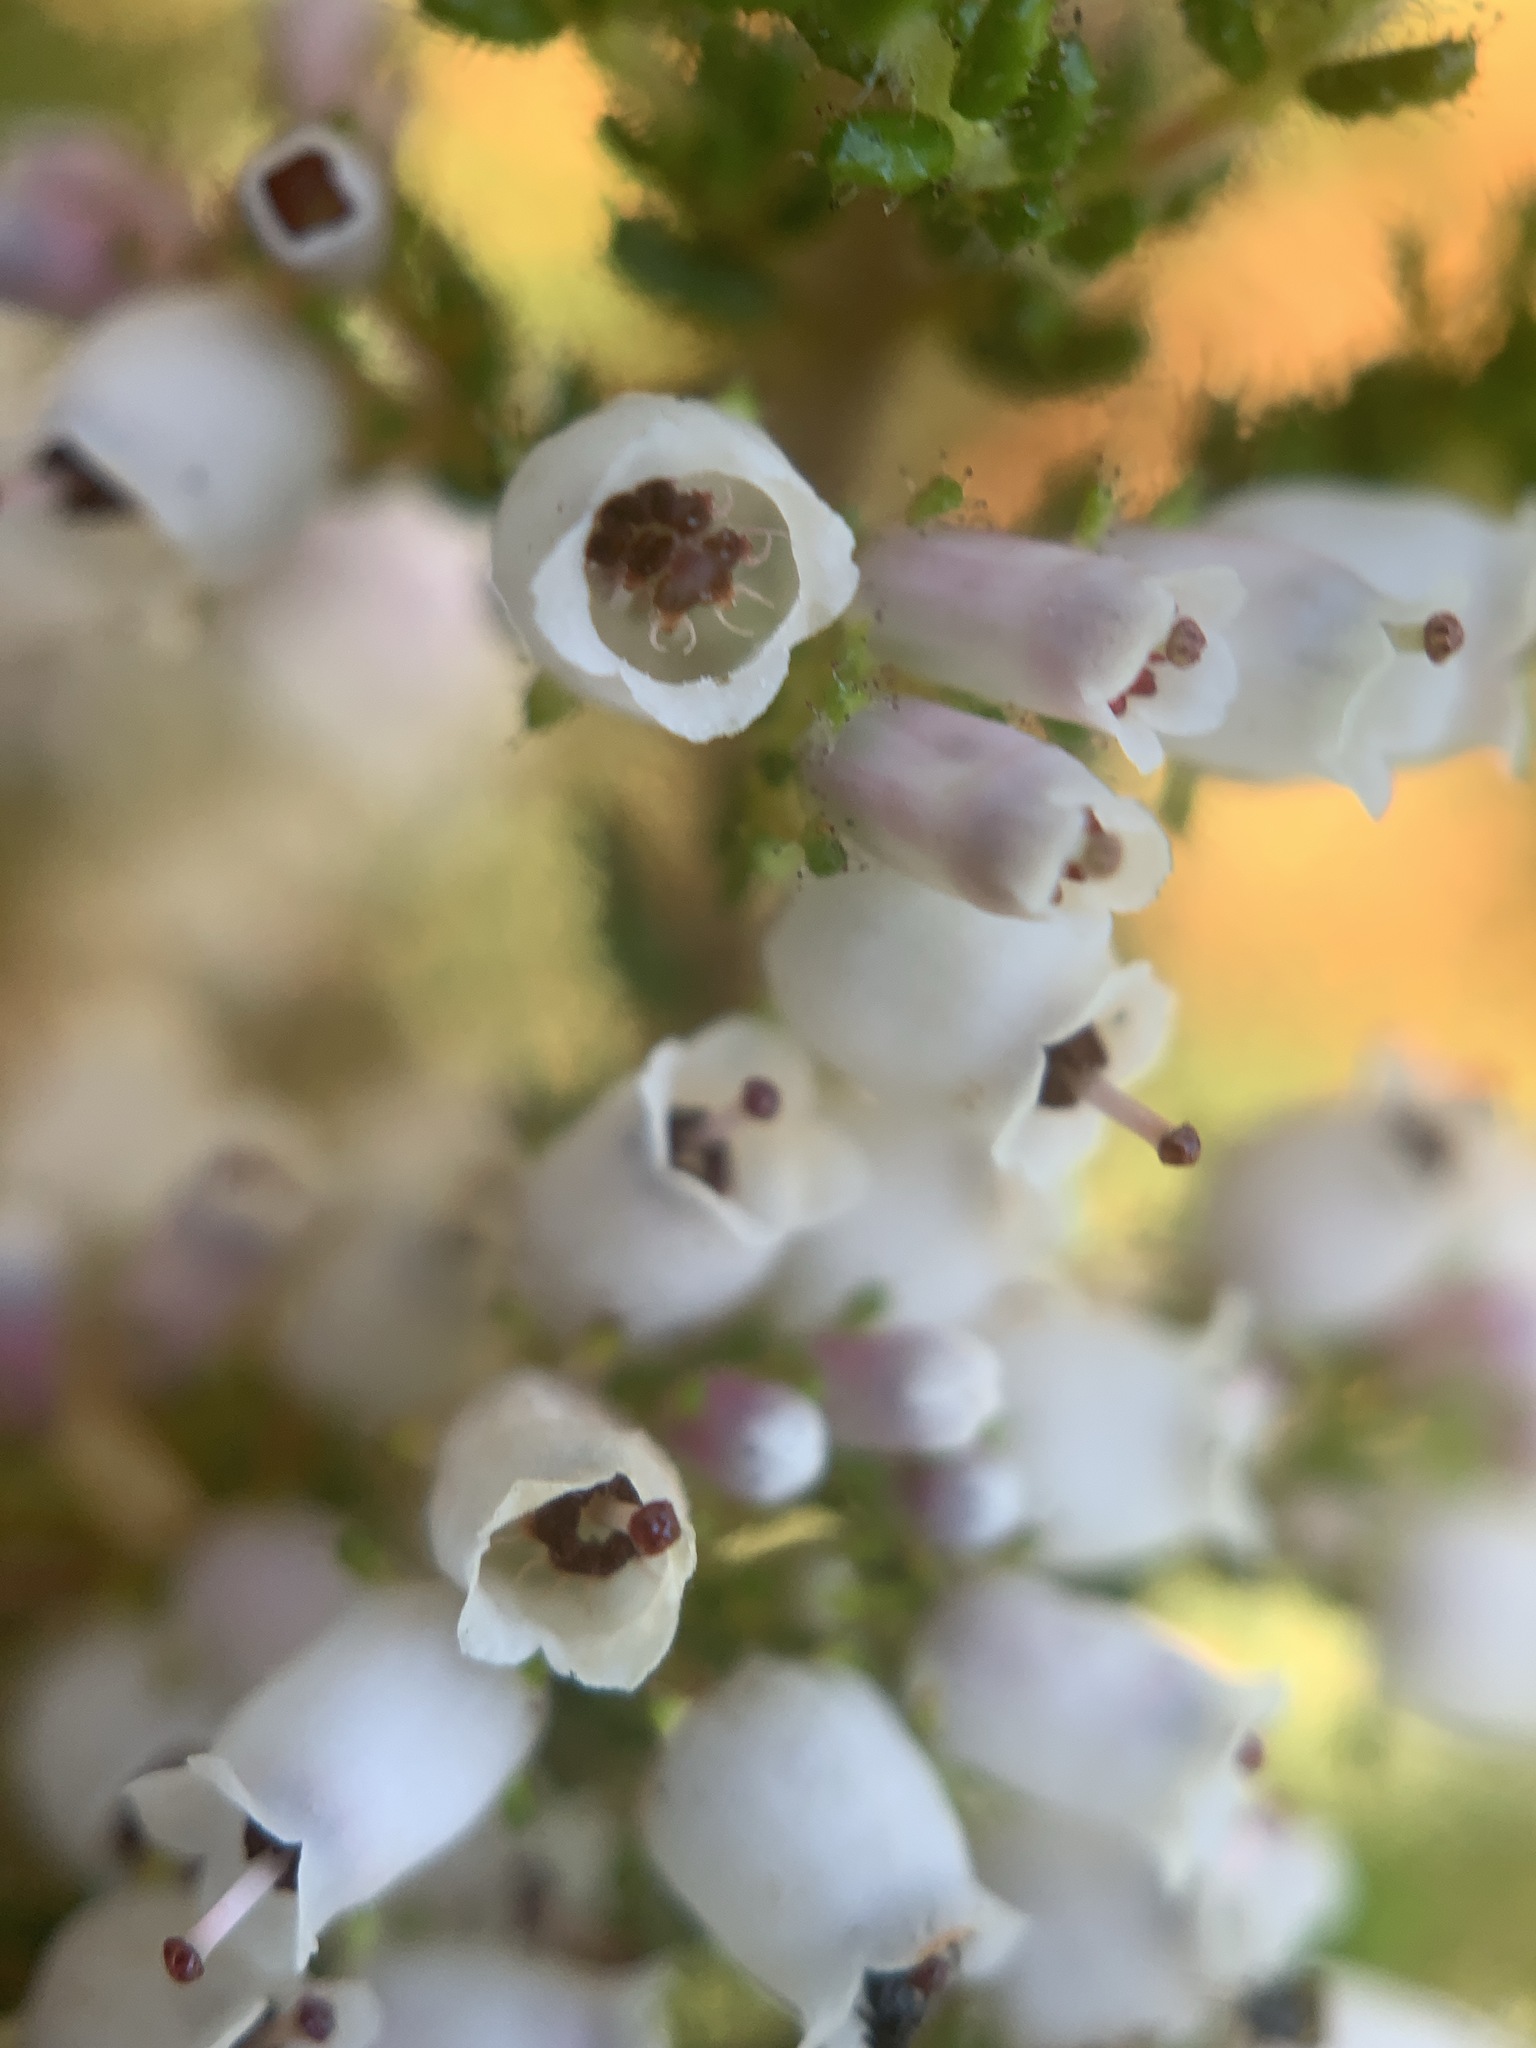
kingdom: Plantae
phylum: Tracheophyta
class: Magnoliopsida
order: Ericales
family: Ericaceae
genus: Erica
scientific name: Erica scabriuscula
